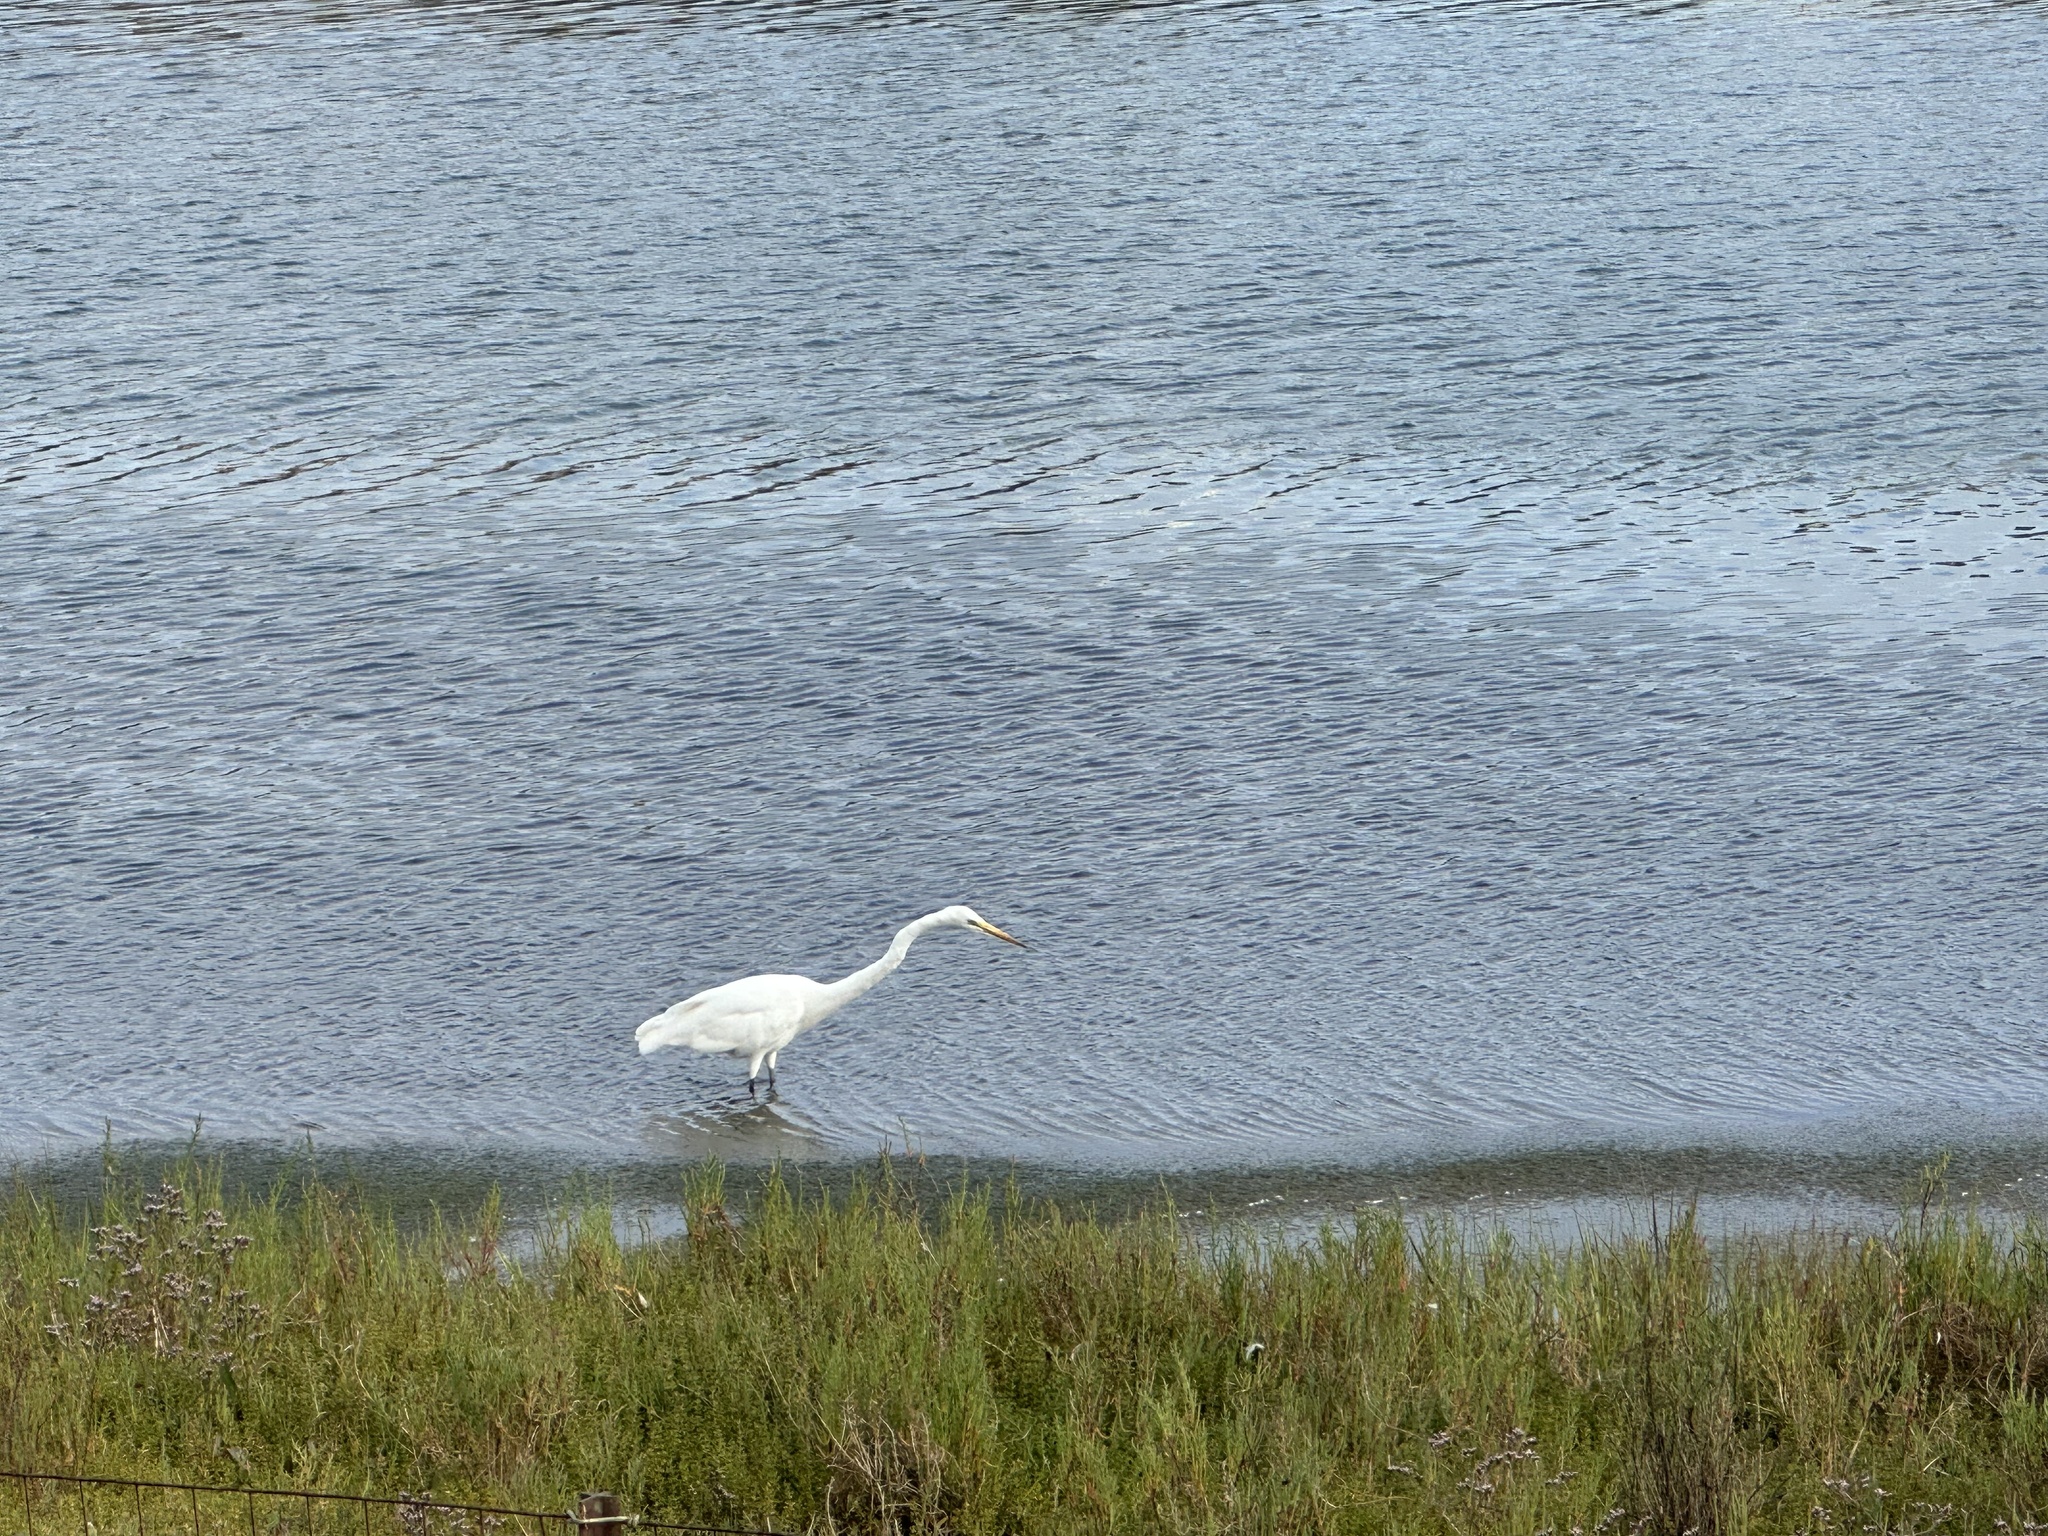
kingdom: Animalia
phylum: Chordata
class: Aves
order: Pelecaniformes
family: Ardeidae
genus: Ardea
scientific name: Ardea alba
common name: Great egret
